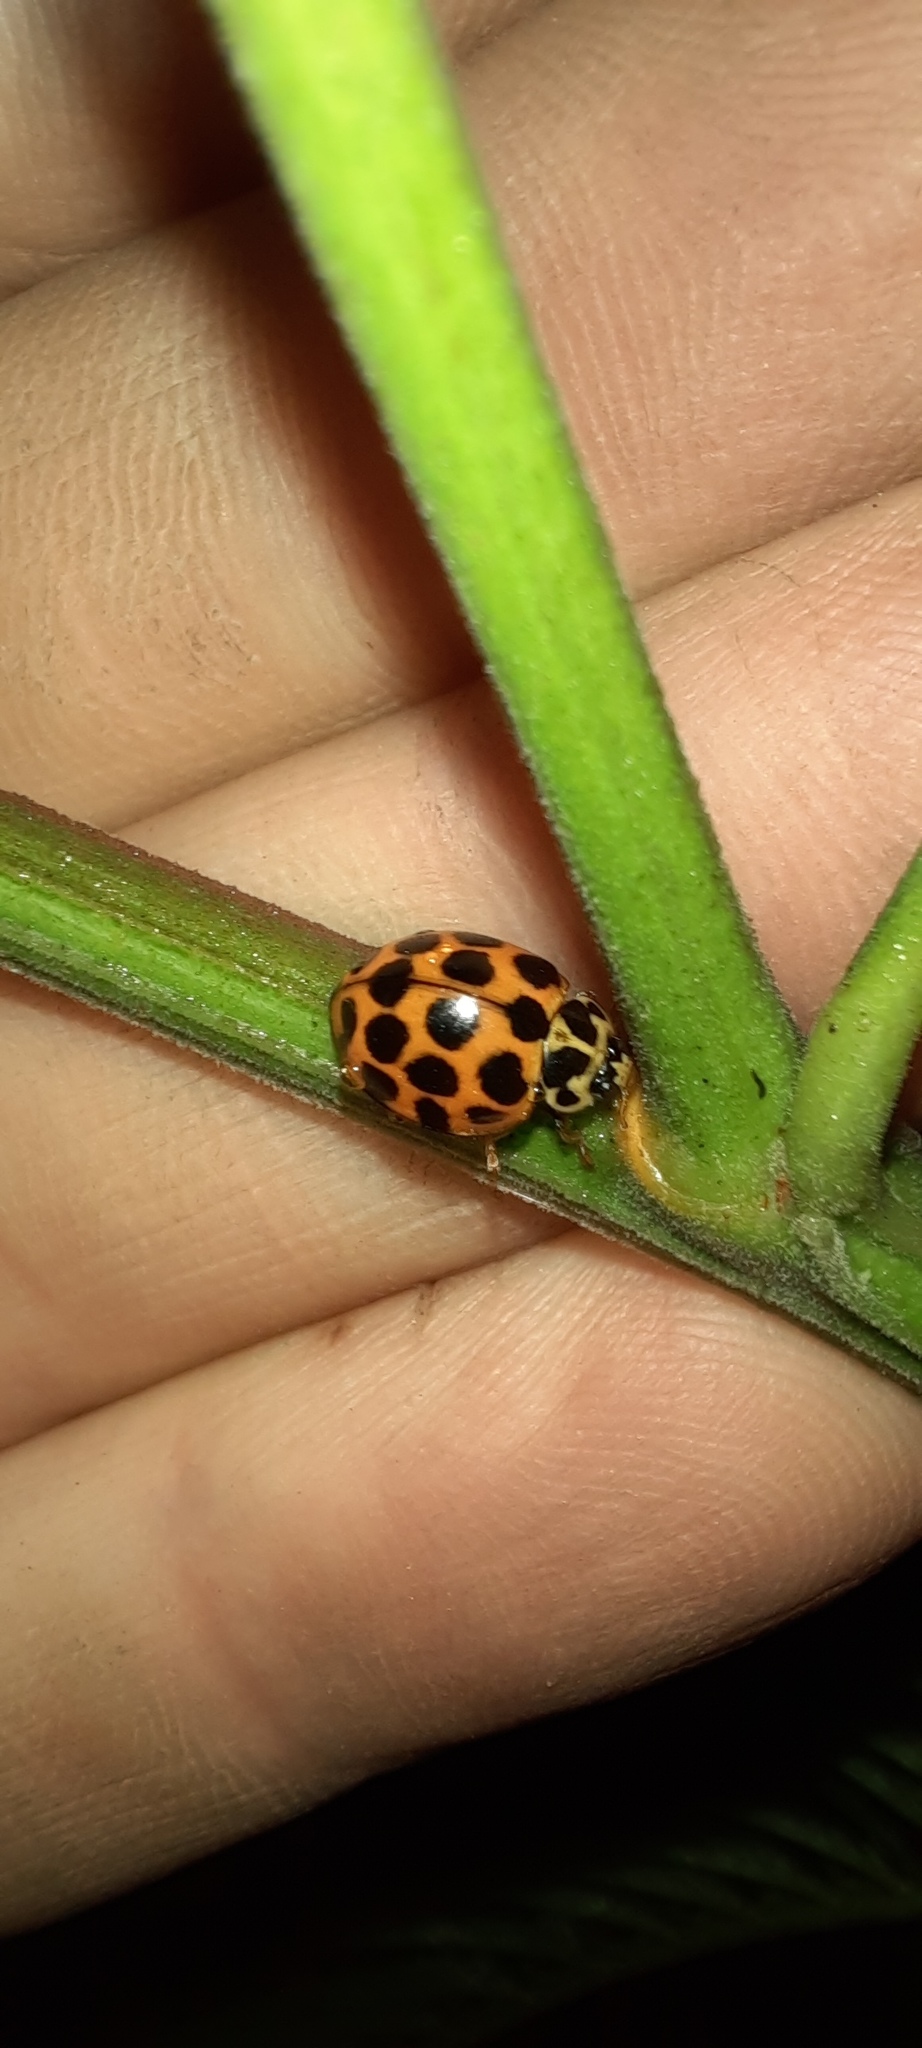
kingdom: Animalia
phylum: Arthropoda
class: Insecta
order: Coleoptera
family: Coccinellidae
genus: Harmonia
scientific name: Harmonia conformis
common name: Common spotted ladybird beetle
